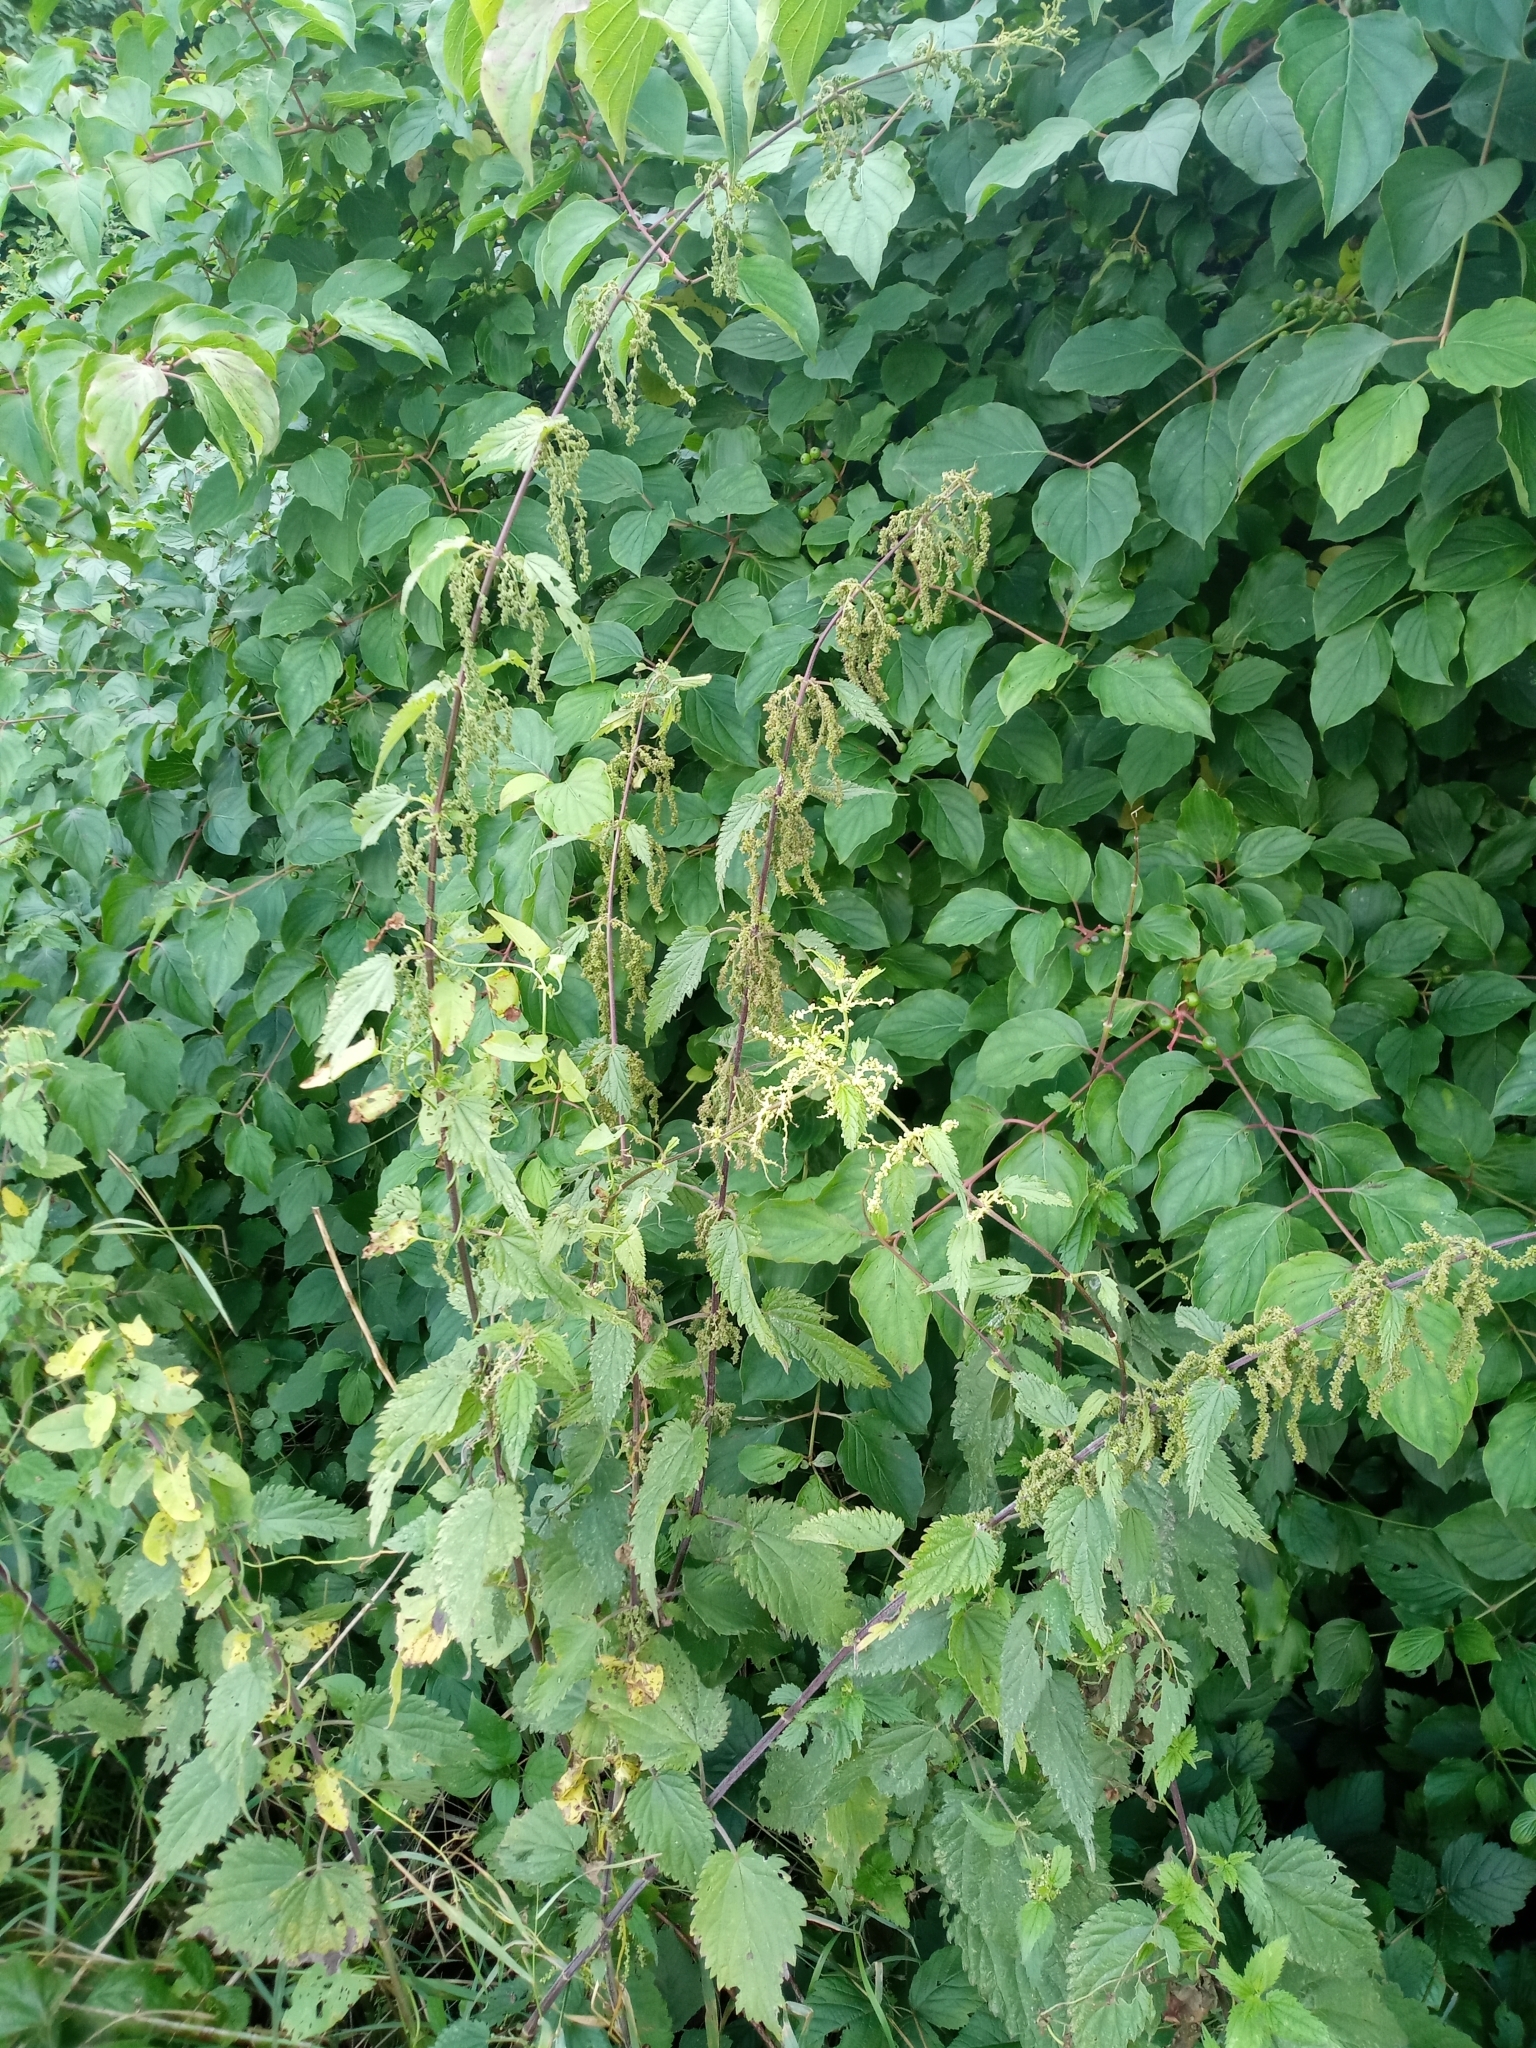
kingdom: Plantae
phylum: Tracheophyta
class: Magnoliopsida
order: Rosales
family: Urticaceae
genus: Urtica
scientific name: Urtica dioica
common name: Common nettle
